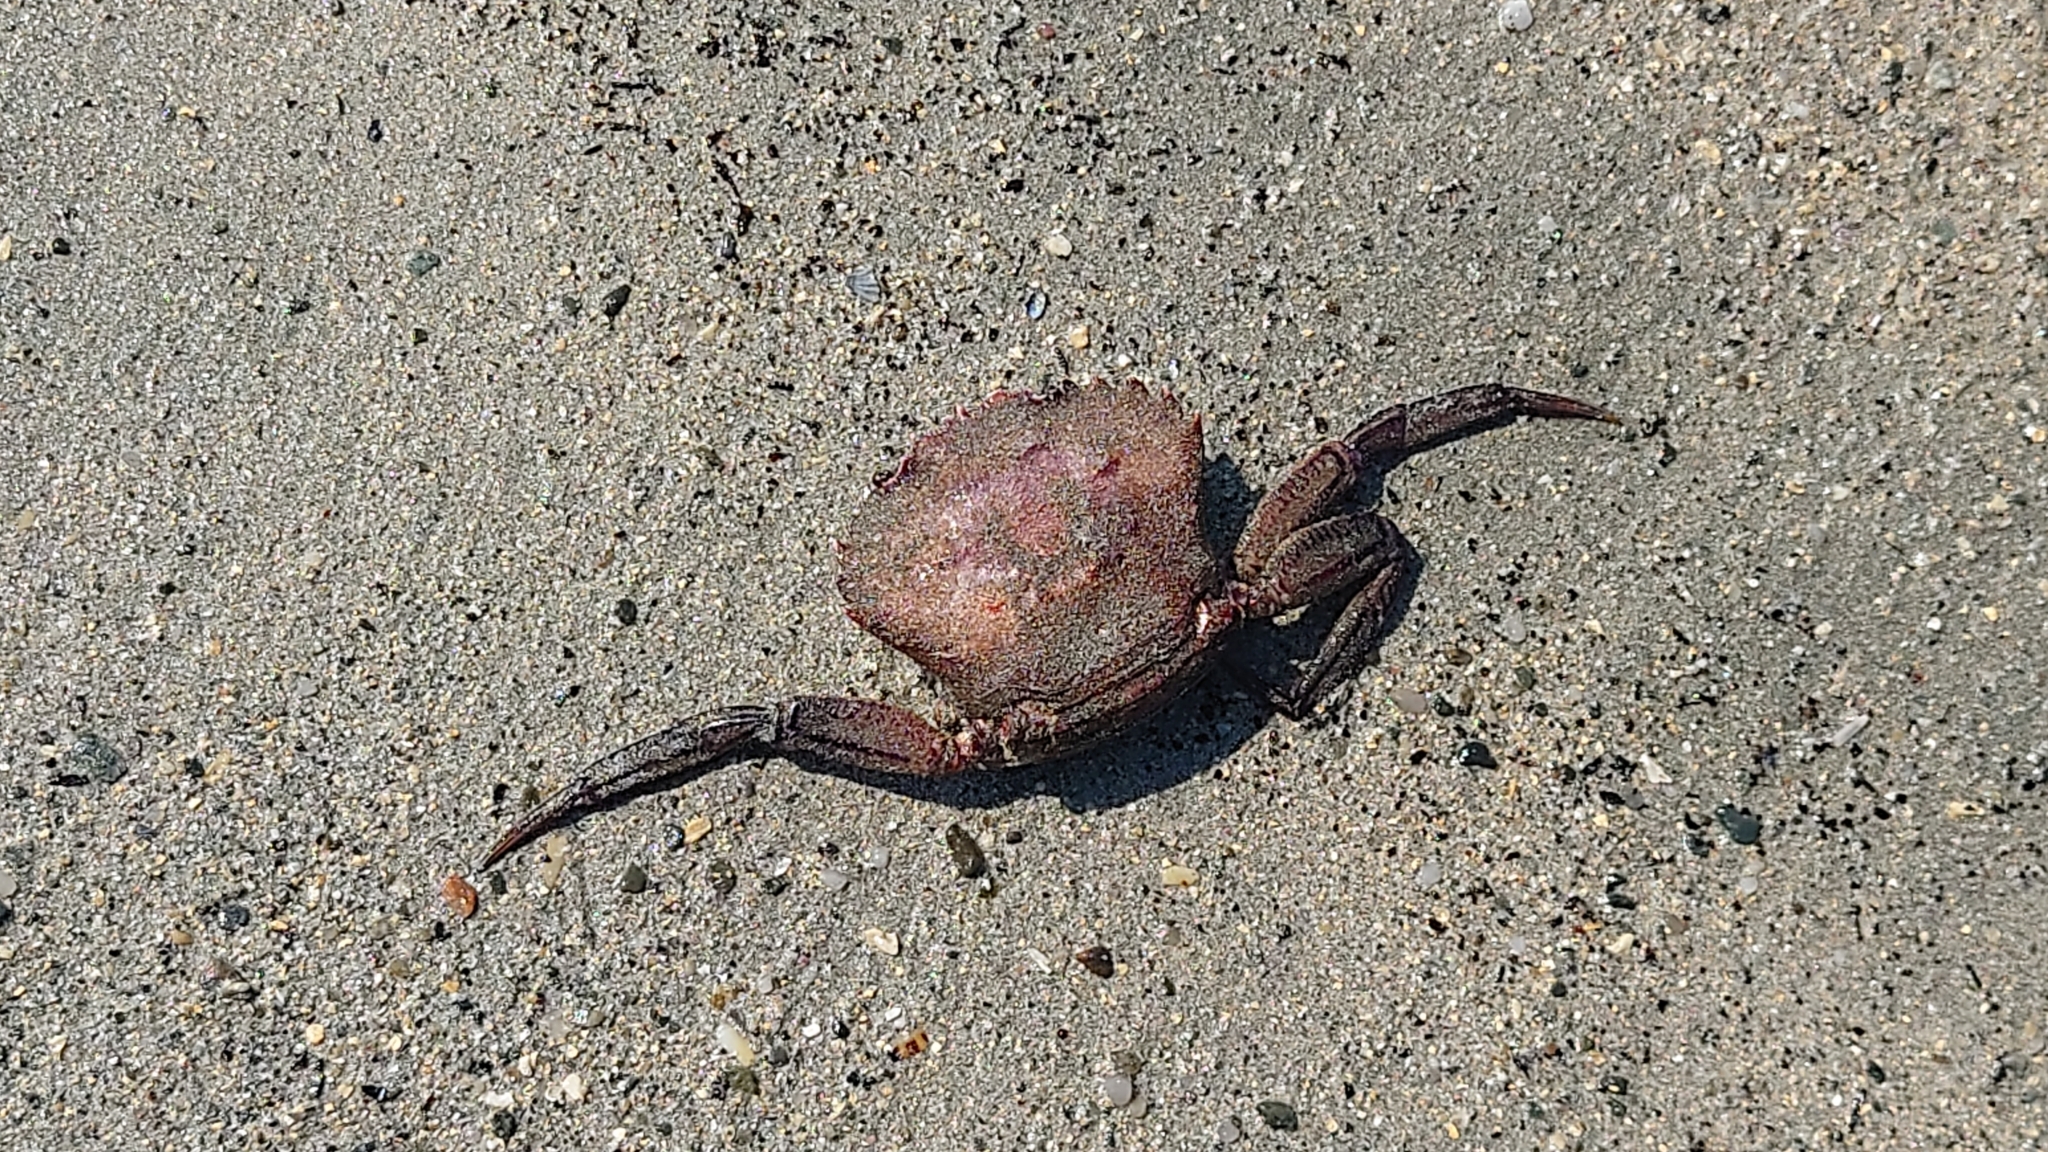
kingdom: Animalia
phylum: Arthropoda
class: Malacostraca
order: Decapoda
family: Polybiidae
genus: Necora
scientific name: Necora puber
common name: Velvet swimming crab
